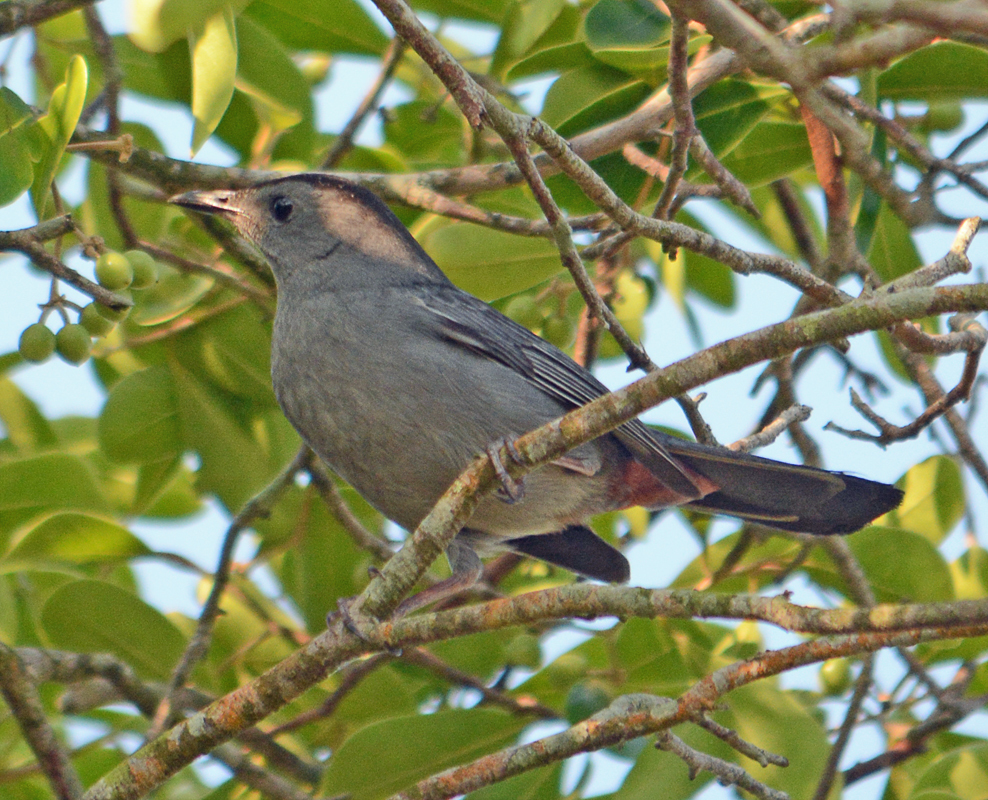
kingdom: Animalia
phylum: Chordata
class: Aves
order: Passeriformes
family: Mimidae
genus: Dumetella
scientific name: Dumetella carolinensis
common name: Gray catbird
